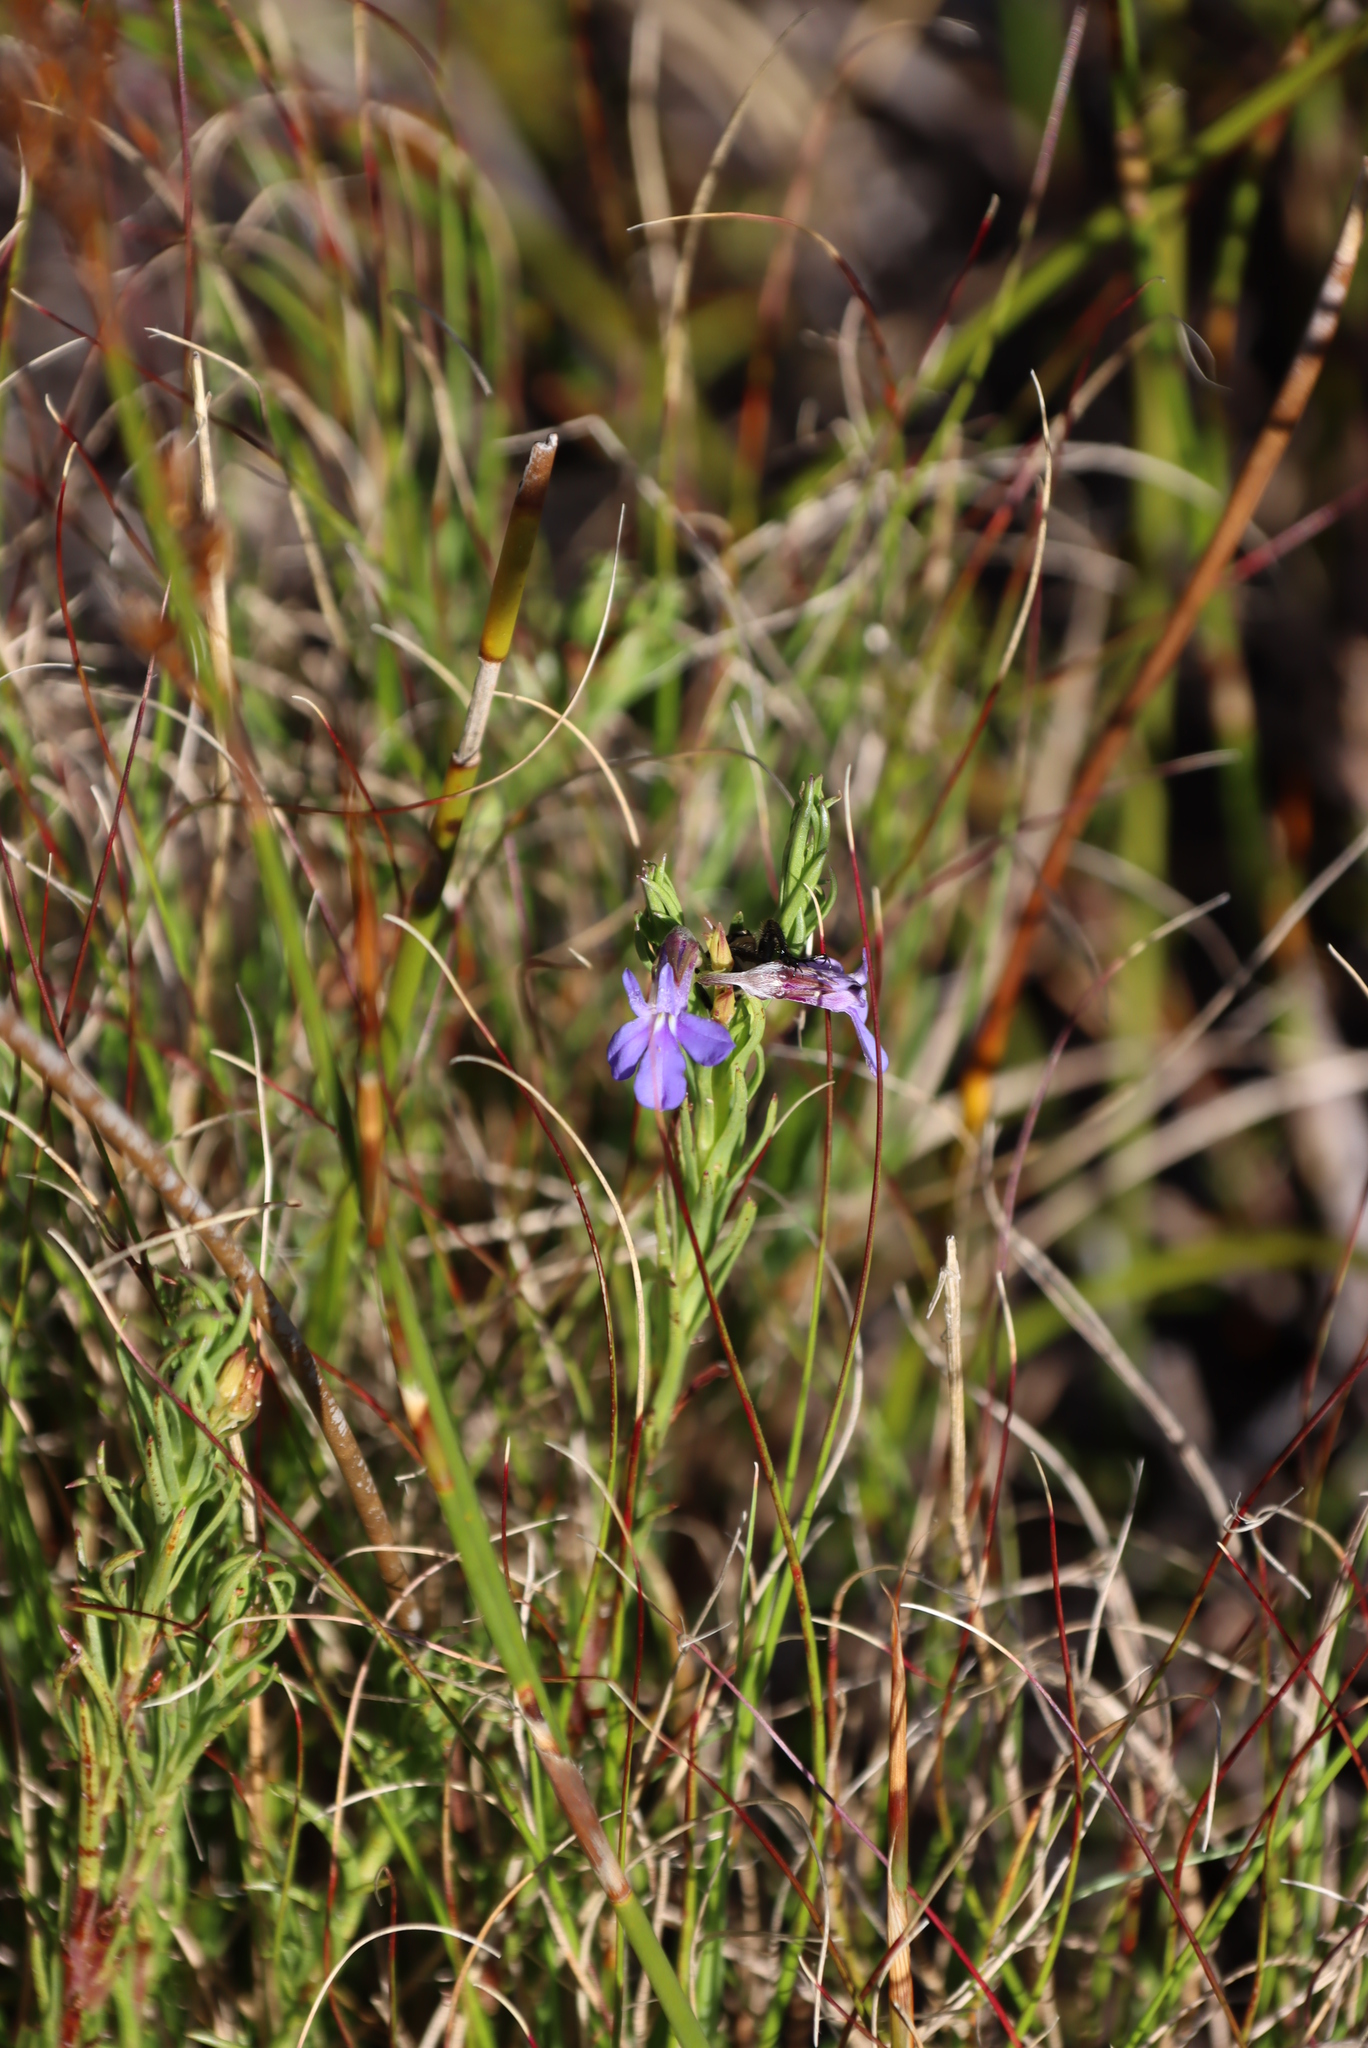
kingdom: Plantae
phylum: Tracheophyta
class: Magnoliopsida
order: Asterales
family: Campanulaceae
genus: Lobelia
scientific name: Lobelia pinifolia
